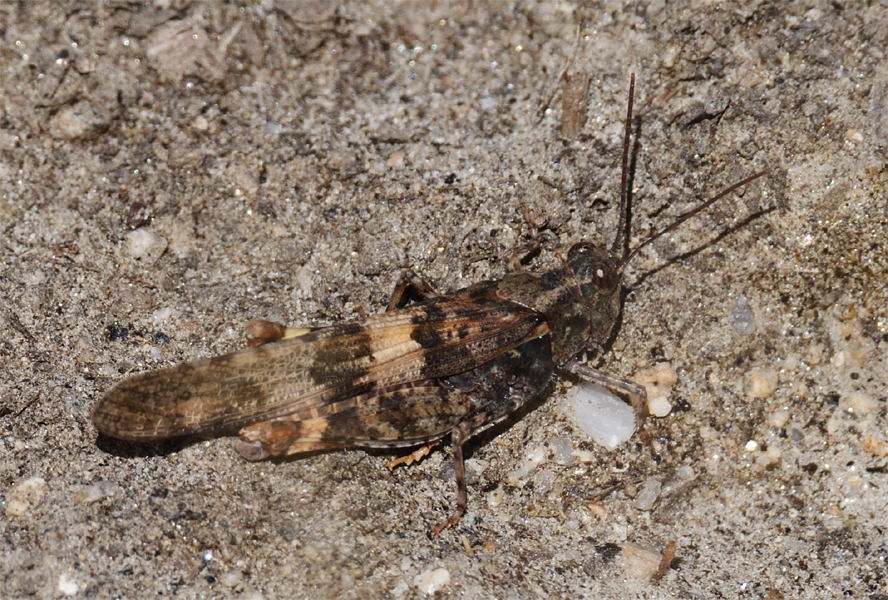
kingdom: Animalia
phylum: Arthropoda
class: Insecta
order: Orthoptera
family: Acrididae
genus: Trimerotropis
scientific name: Trimerotropis pallidipennis
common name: Pallid-winged grasshopper
